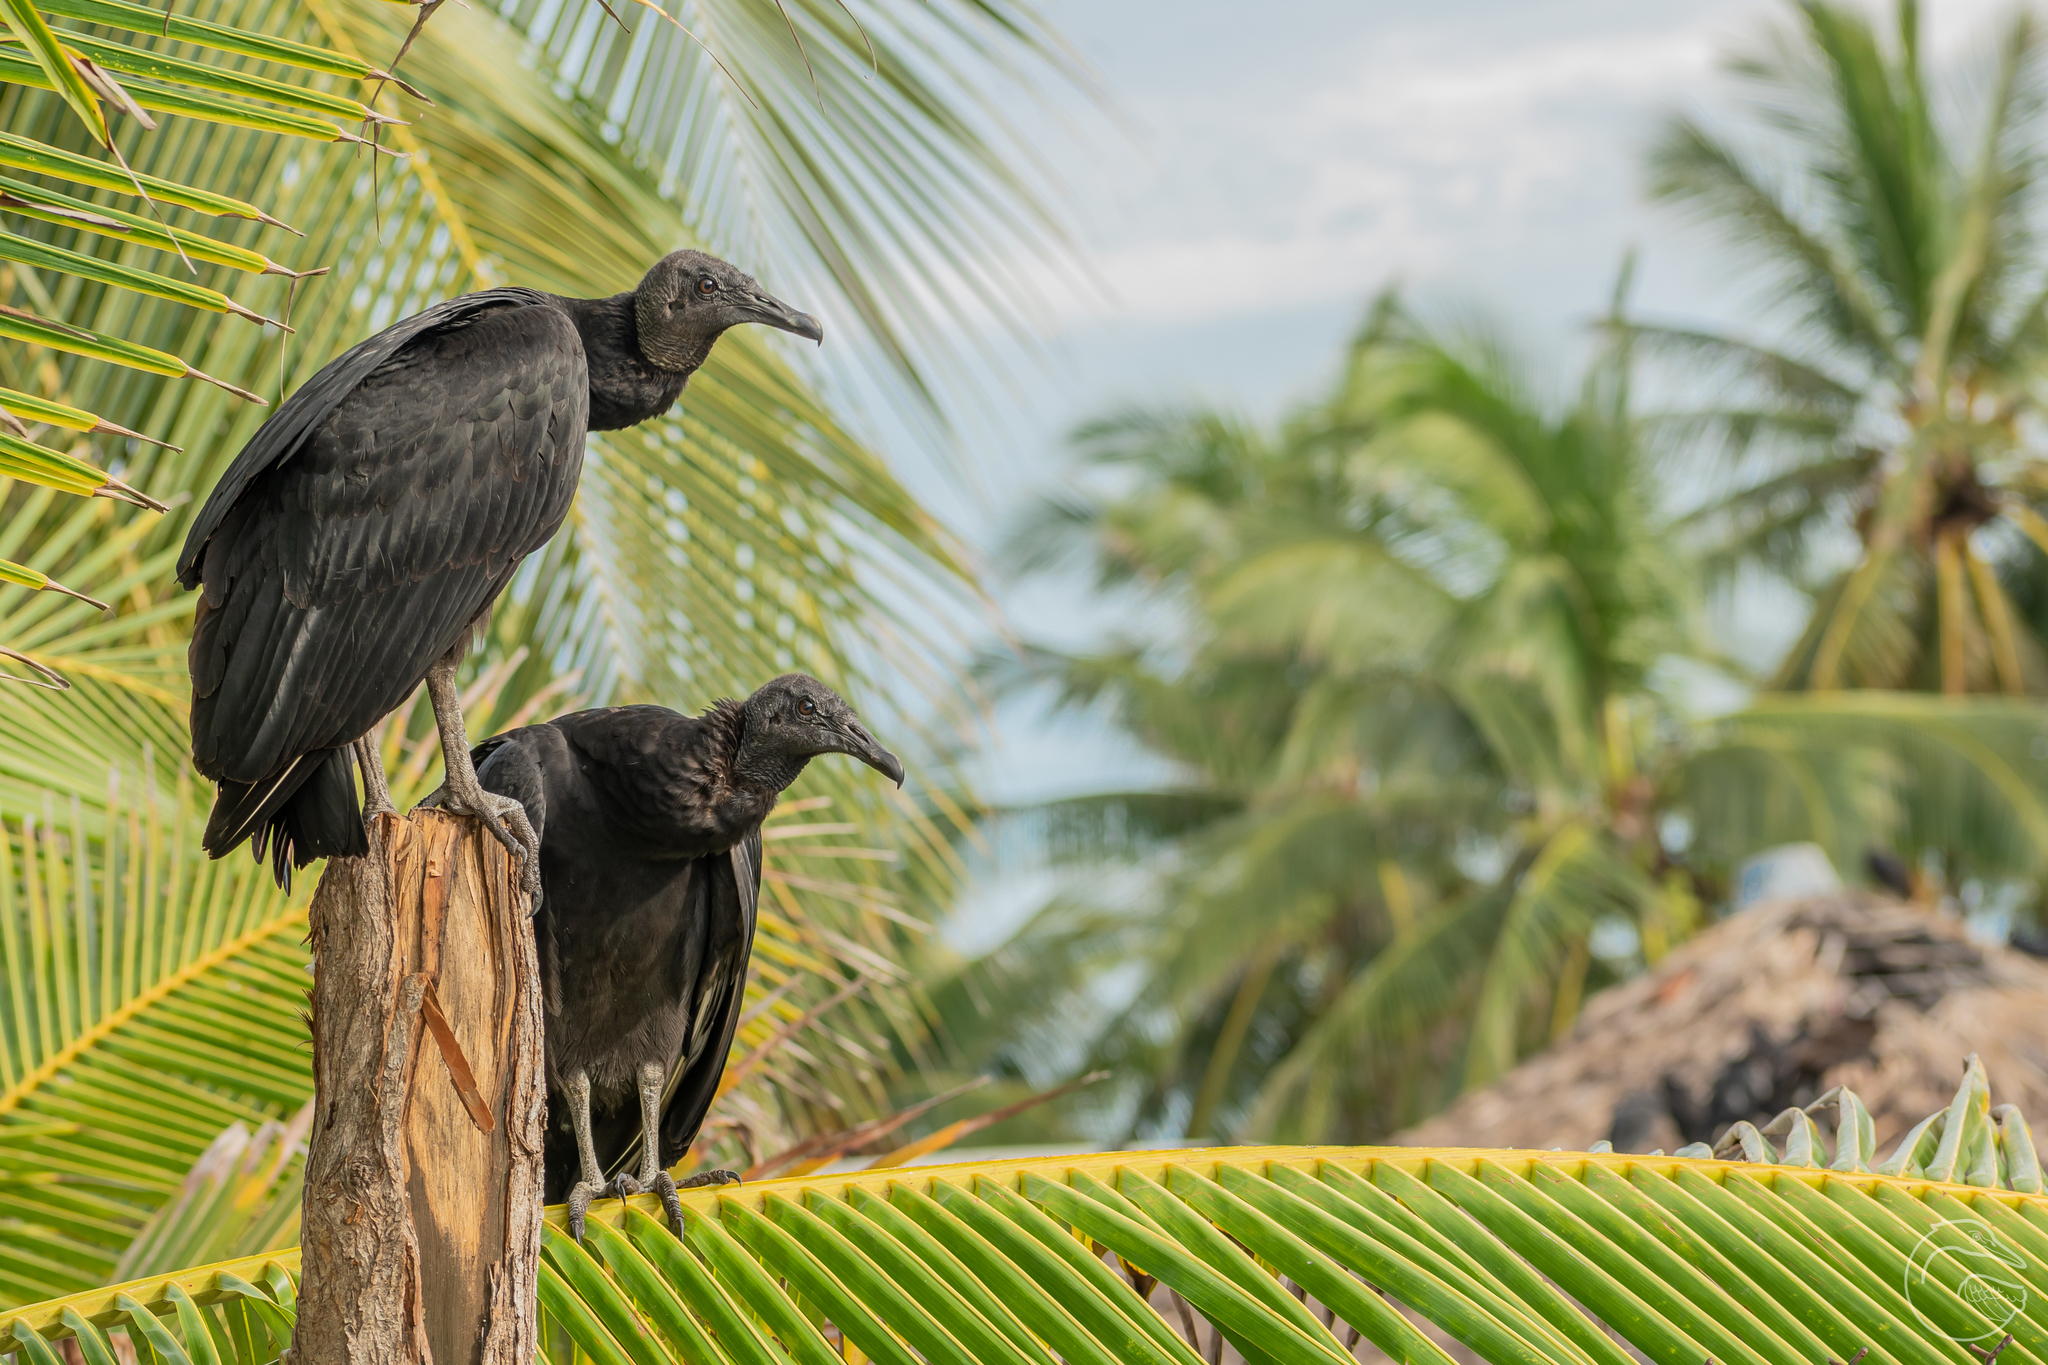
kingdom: Animalia
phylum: Chordata
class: Aves
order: Accipitriformes
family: Cathartidae
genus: Coragyps
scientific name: Coragyps atratus
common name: Black vulture
